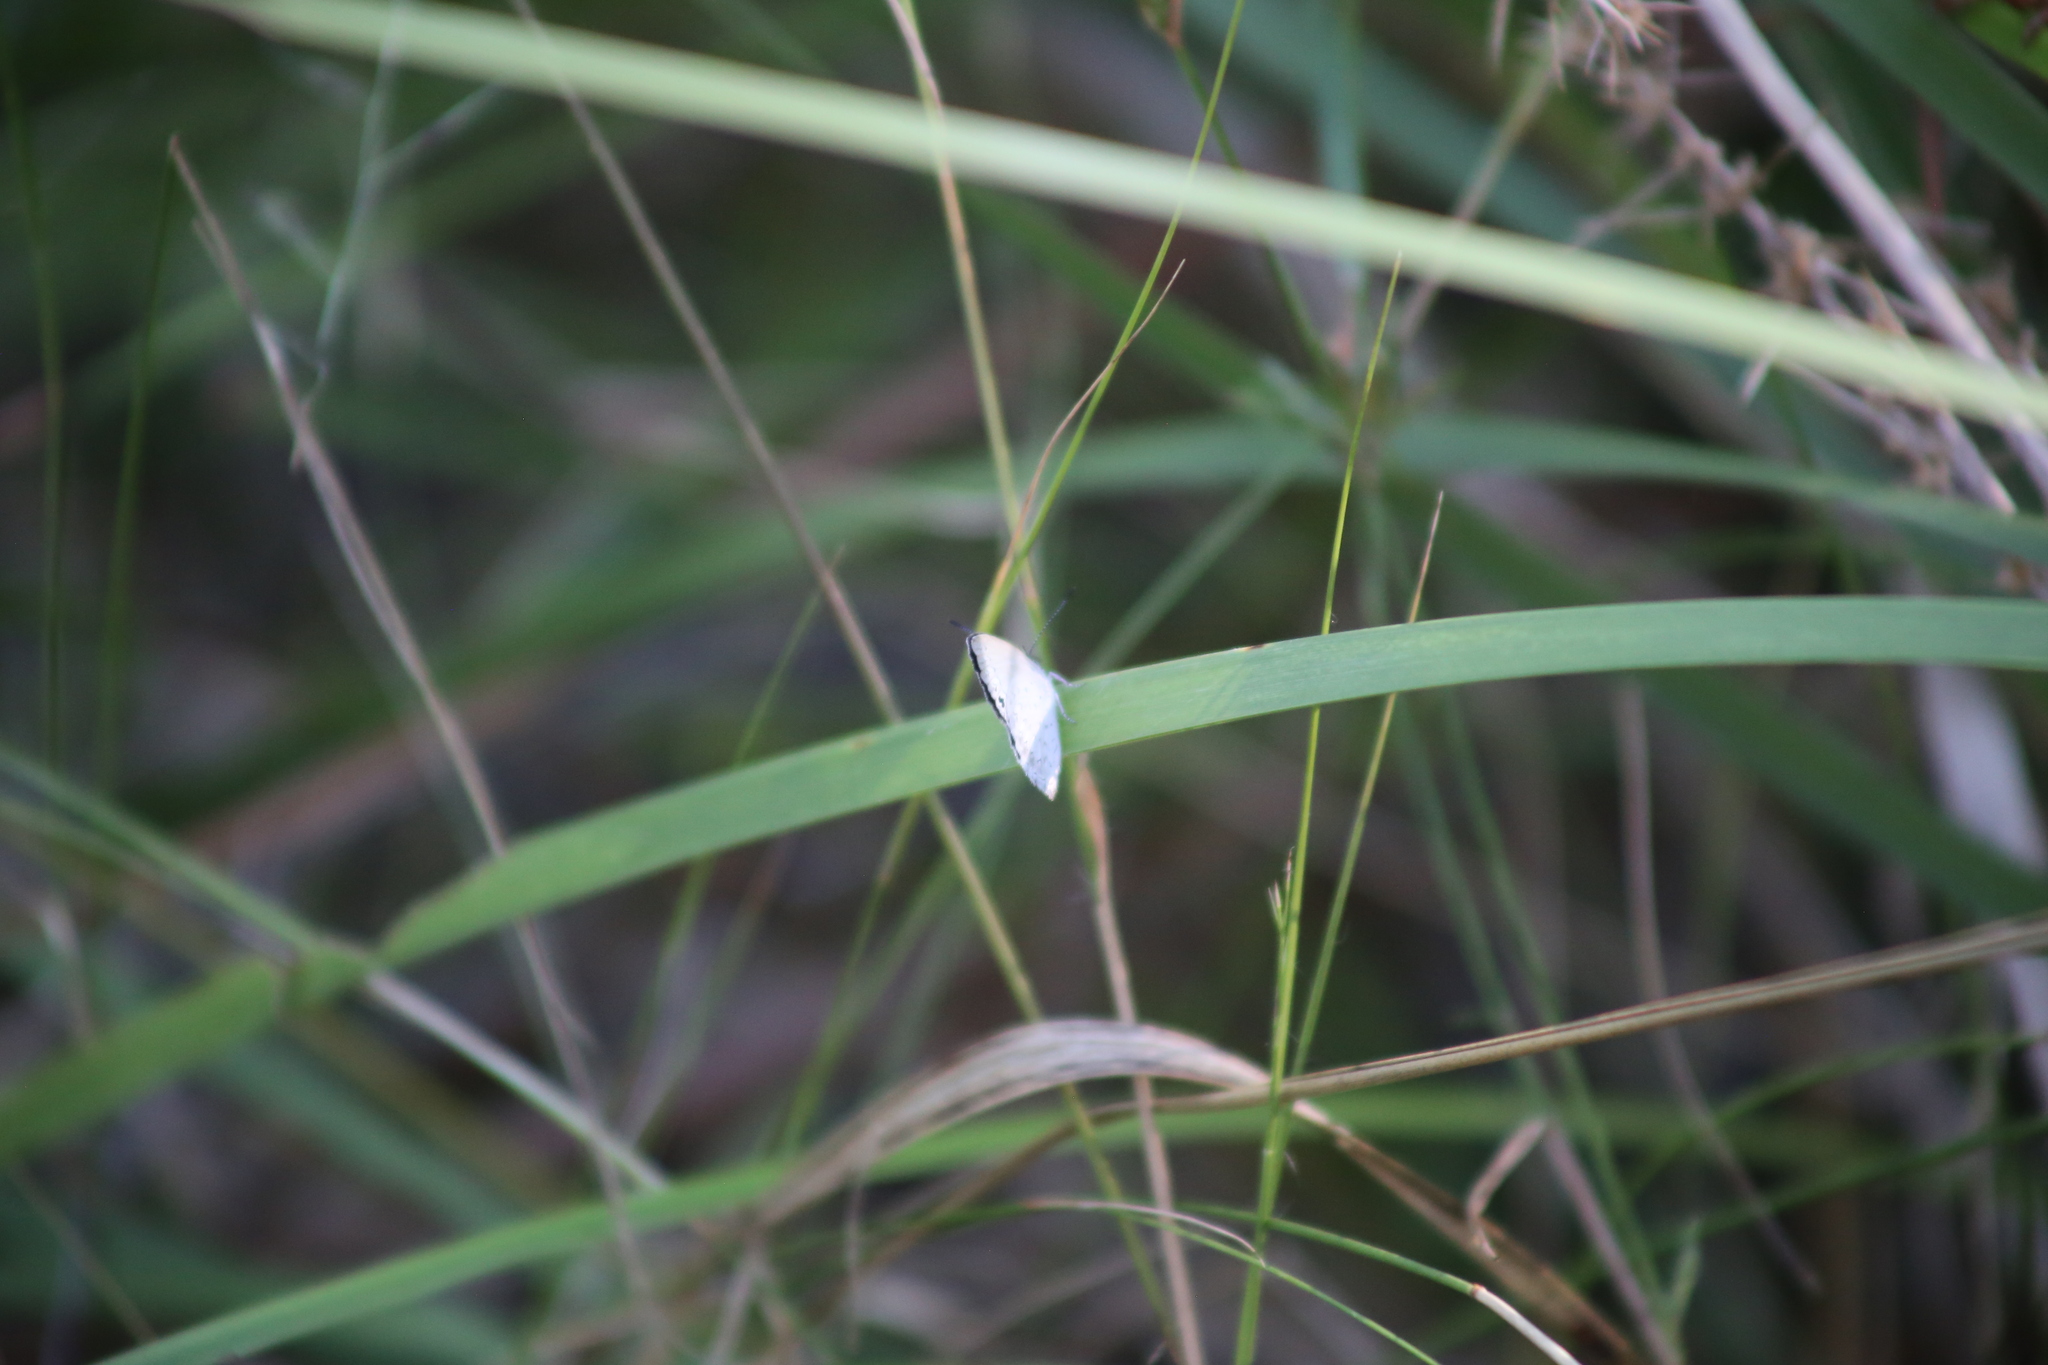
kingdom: Animalia
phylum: Arthropoda
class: Insecta
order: Lepidoptera
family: Lycaenidae
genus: Candalides
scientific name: Candalides
